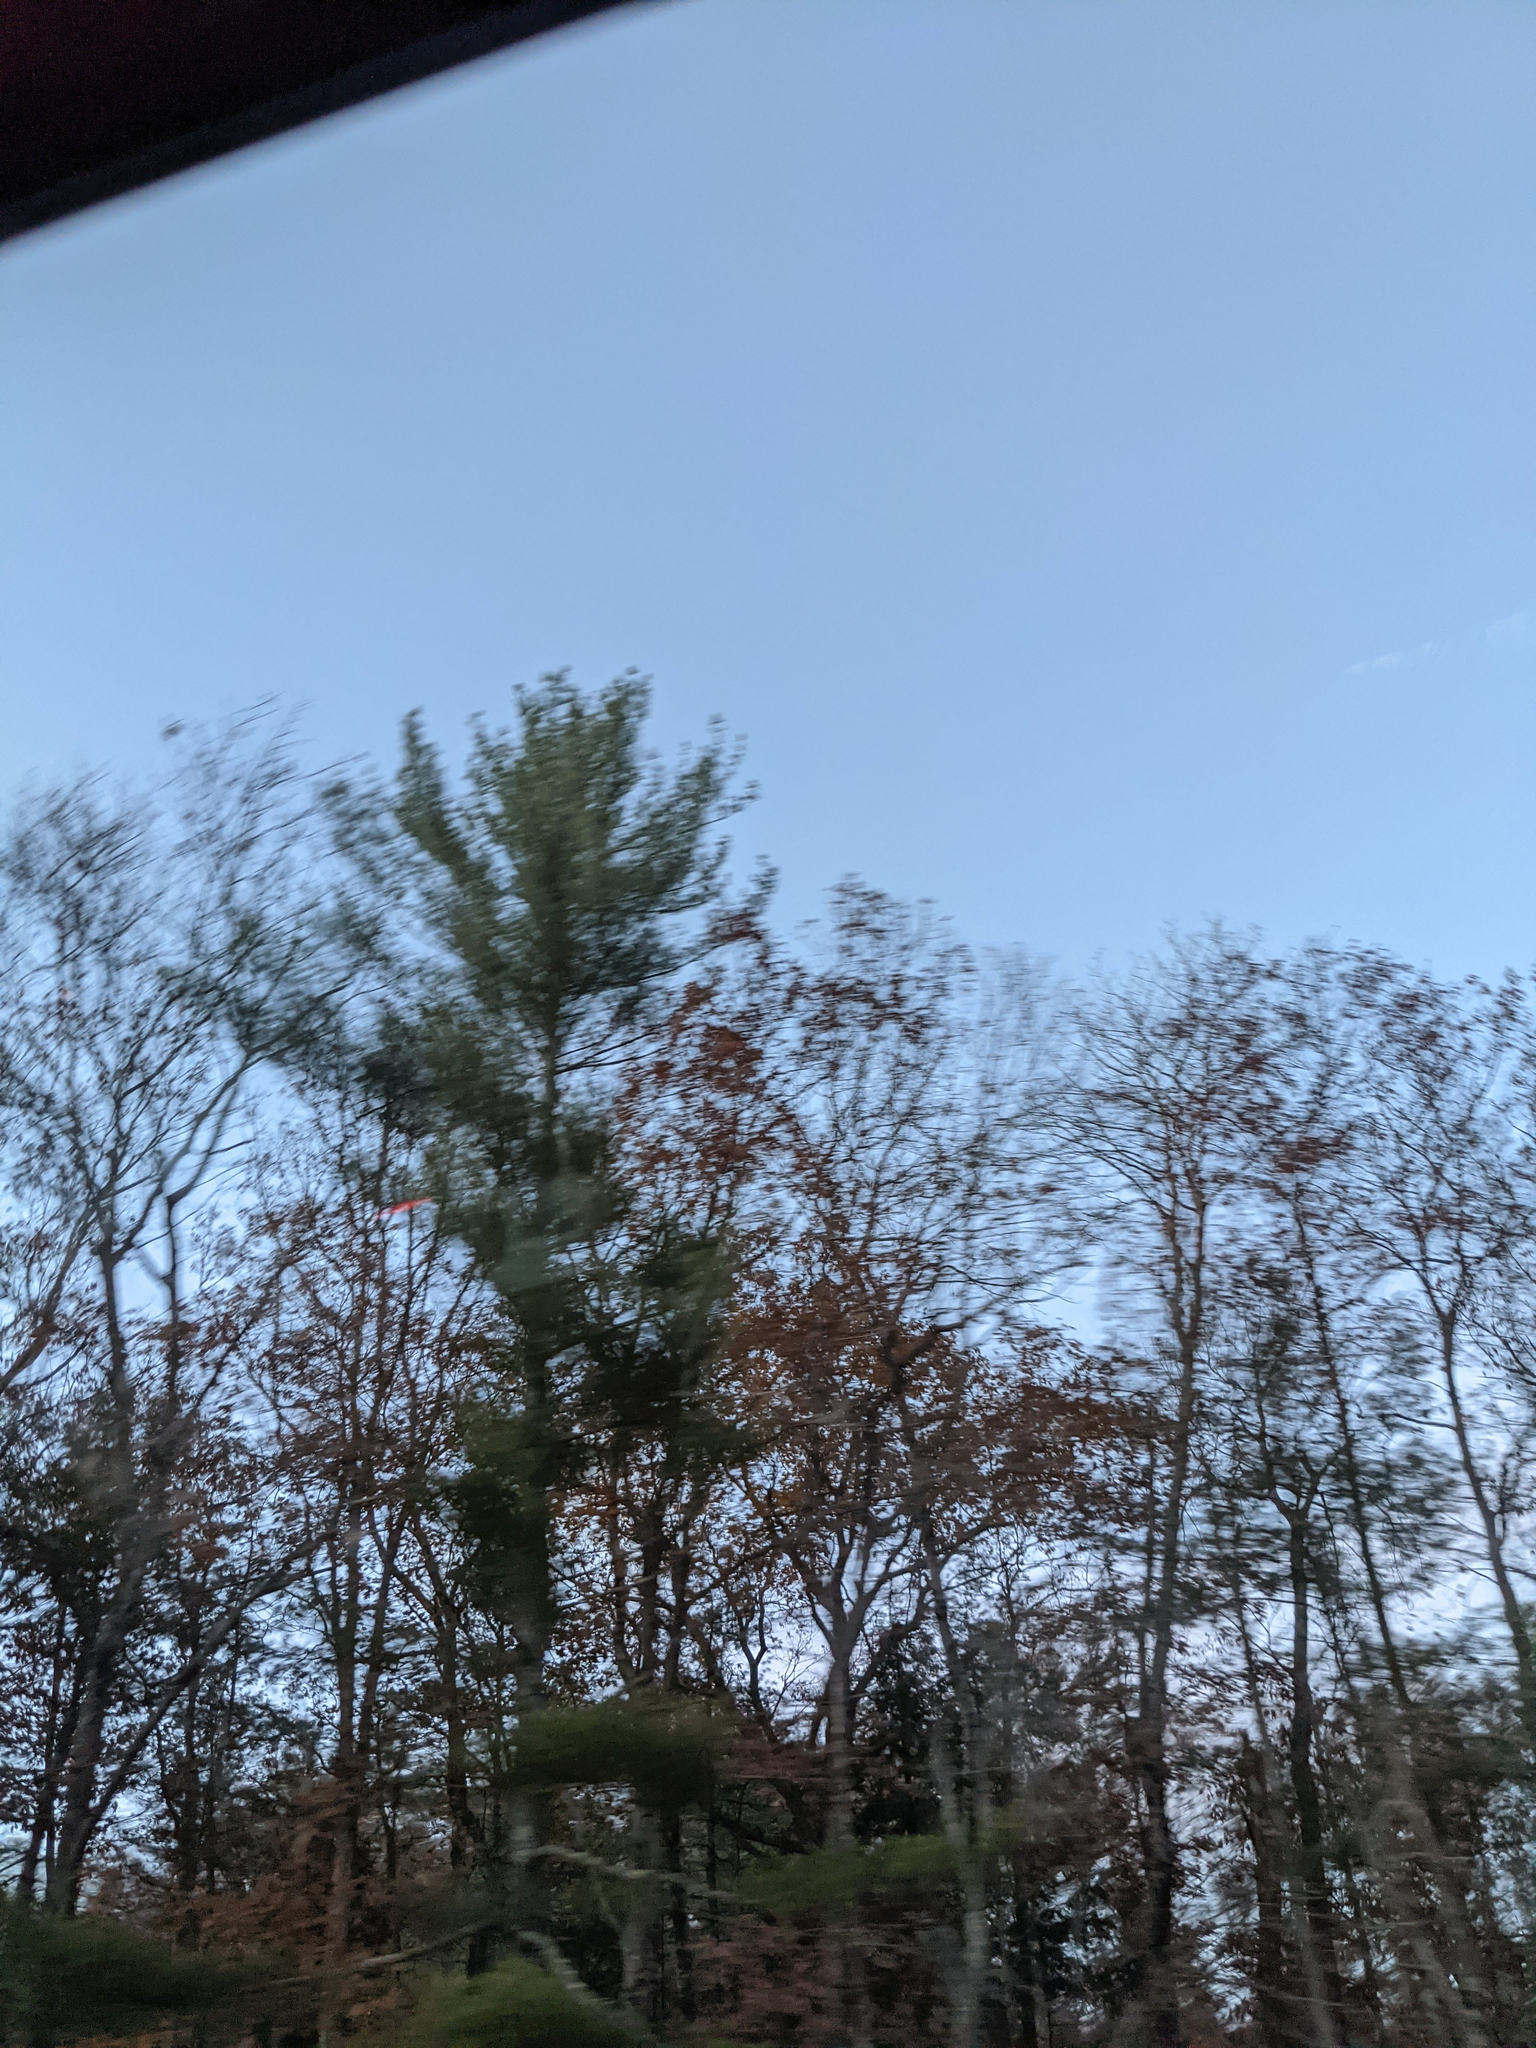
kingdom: Plantae
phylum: Tracheophyta
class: Pinopsida
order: Pinales
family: Pinaceae
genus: Pinus
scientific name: Pinus strobus
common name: Weymouth pine
